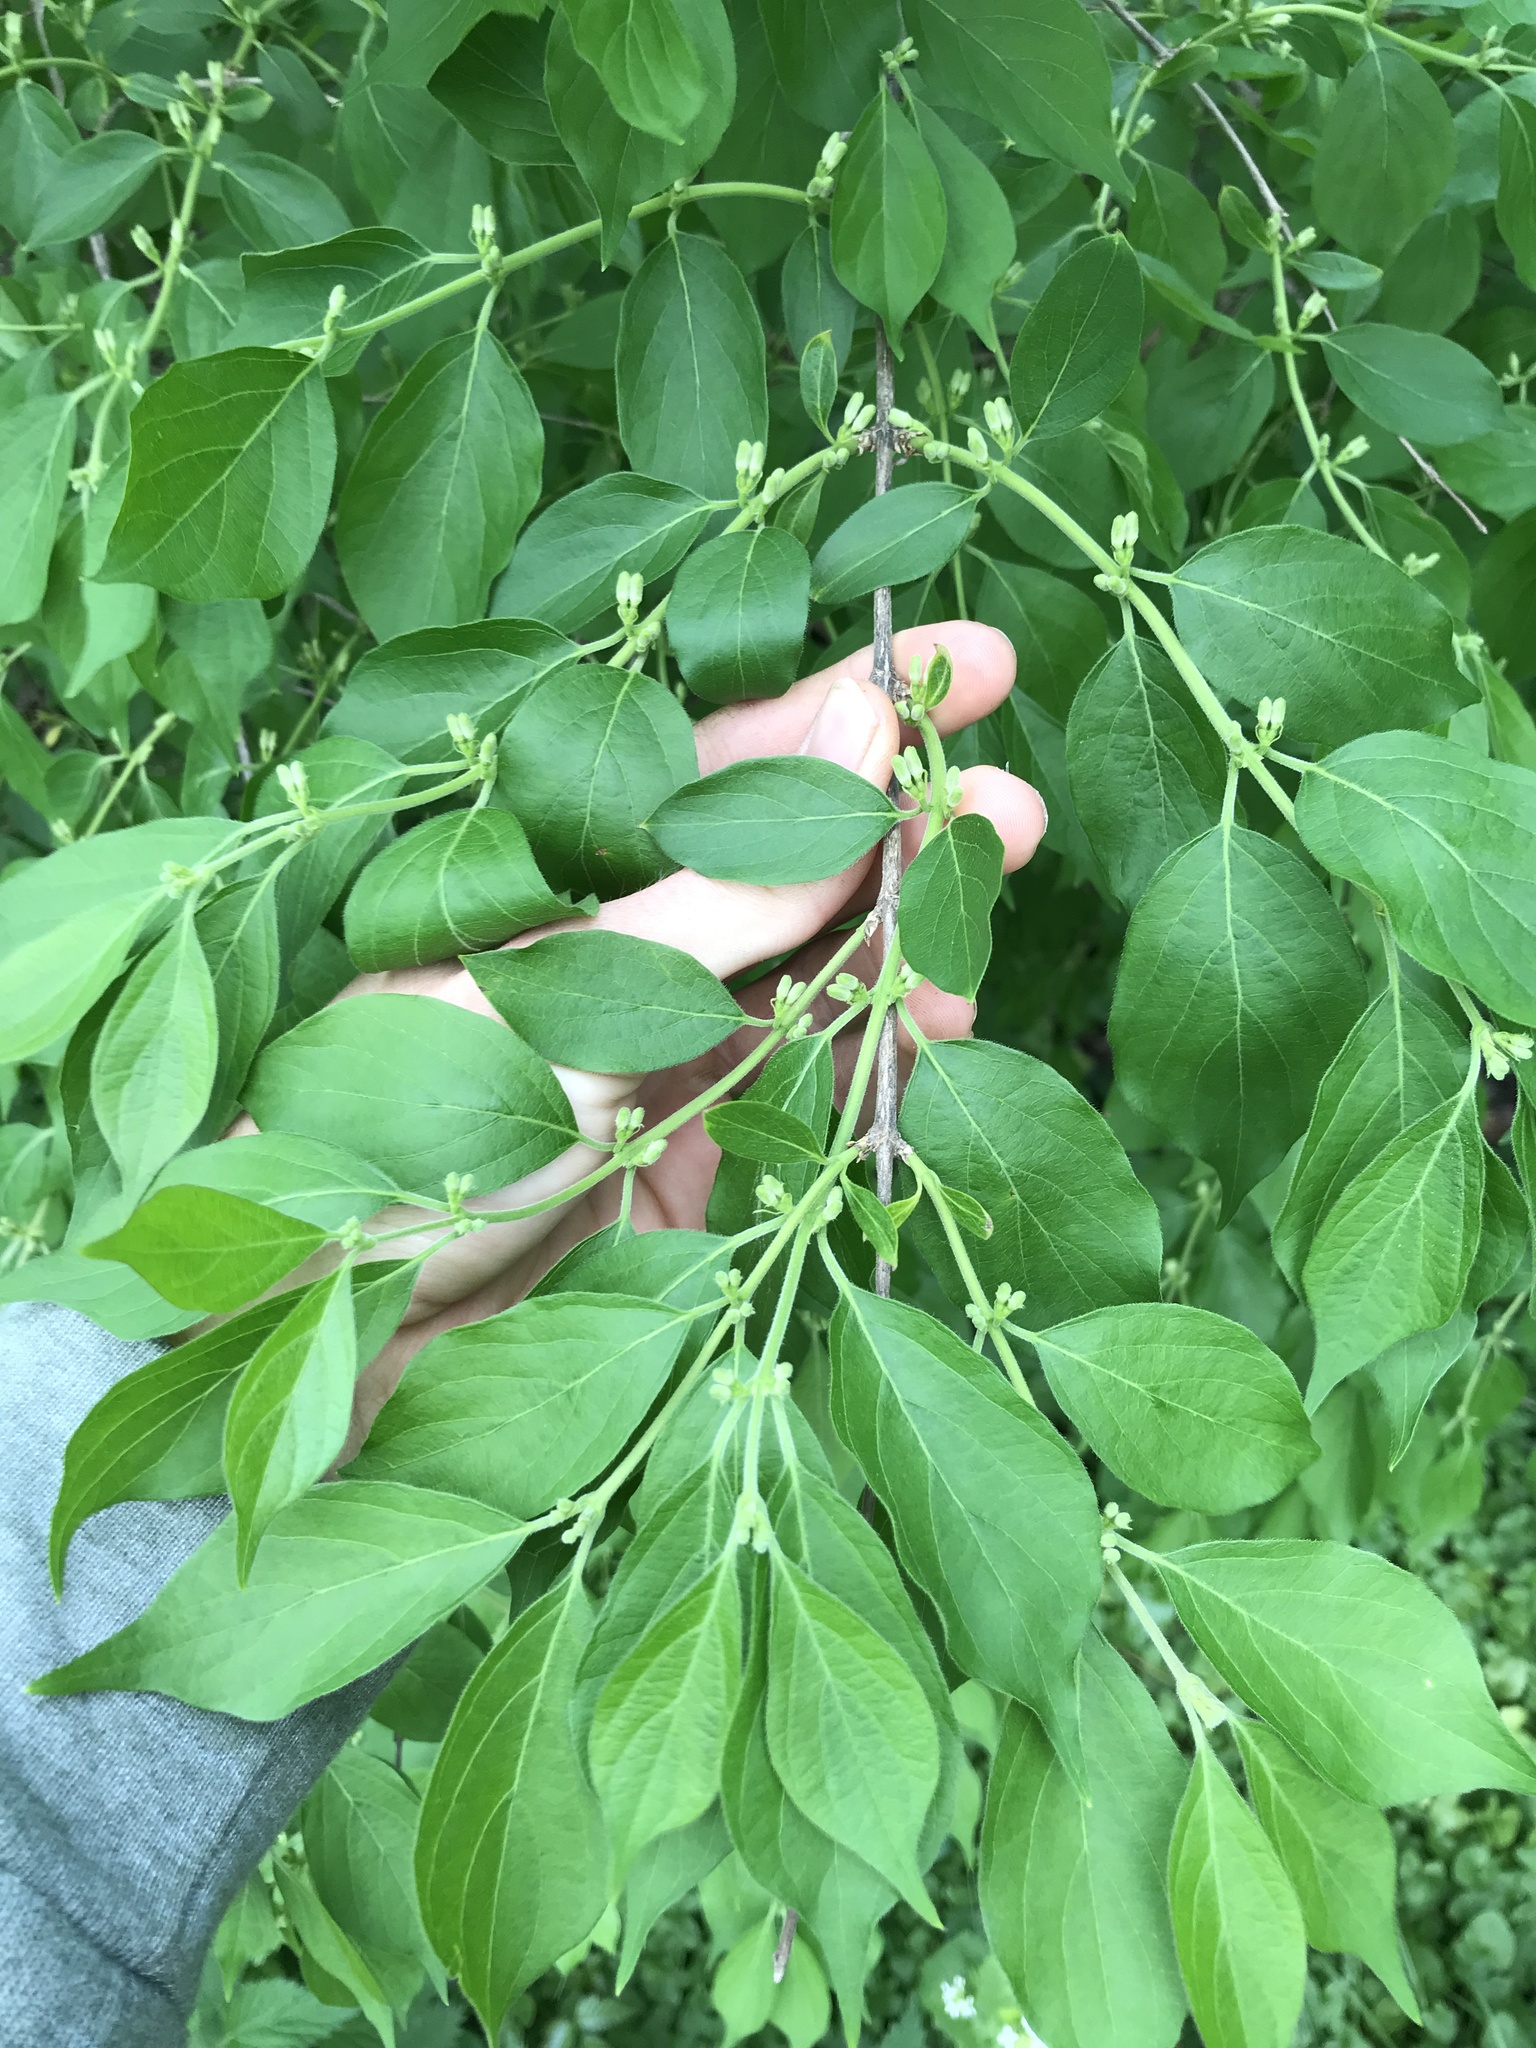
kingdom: Plantae
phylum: Tracheophyta
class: Magnoliopsida
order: Dipsacales
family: Caprifoliaceae
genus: Lonicera
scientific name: Lonicera maackii
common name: Amur honeysuckle
